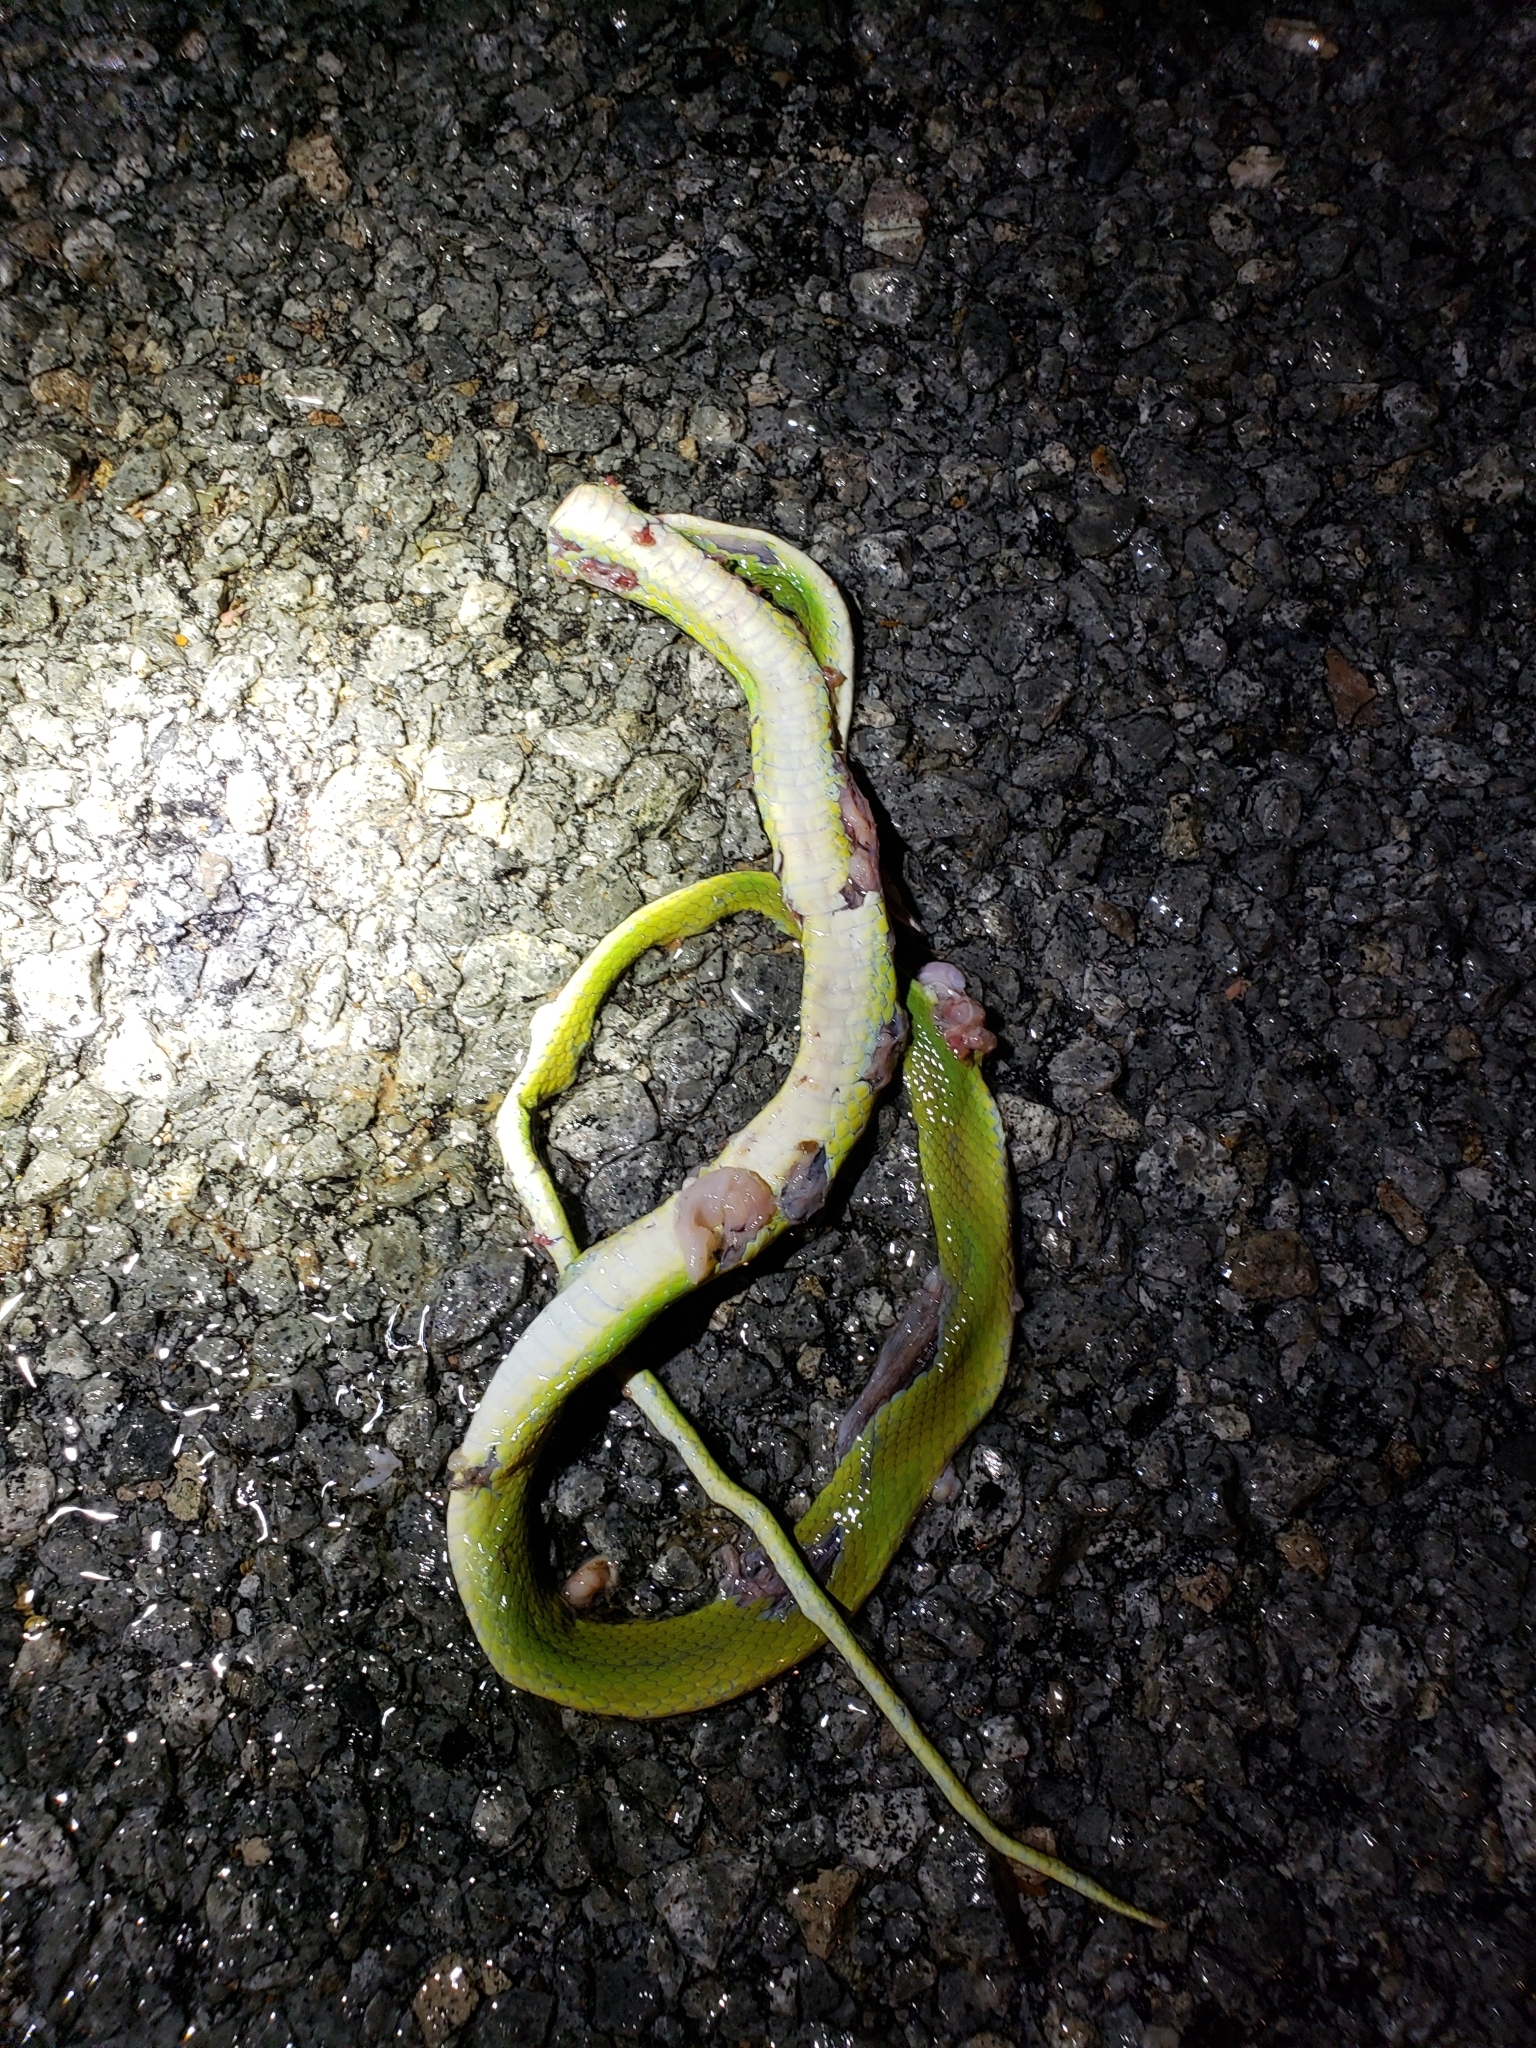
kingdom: Animalia
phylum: Chordata
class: Squamata
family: Colubridae
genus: Opheodrys
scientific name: Opheodrys aestivus
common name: Rough greensnake
